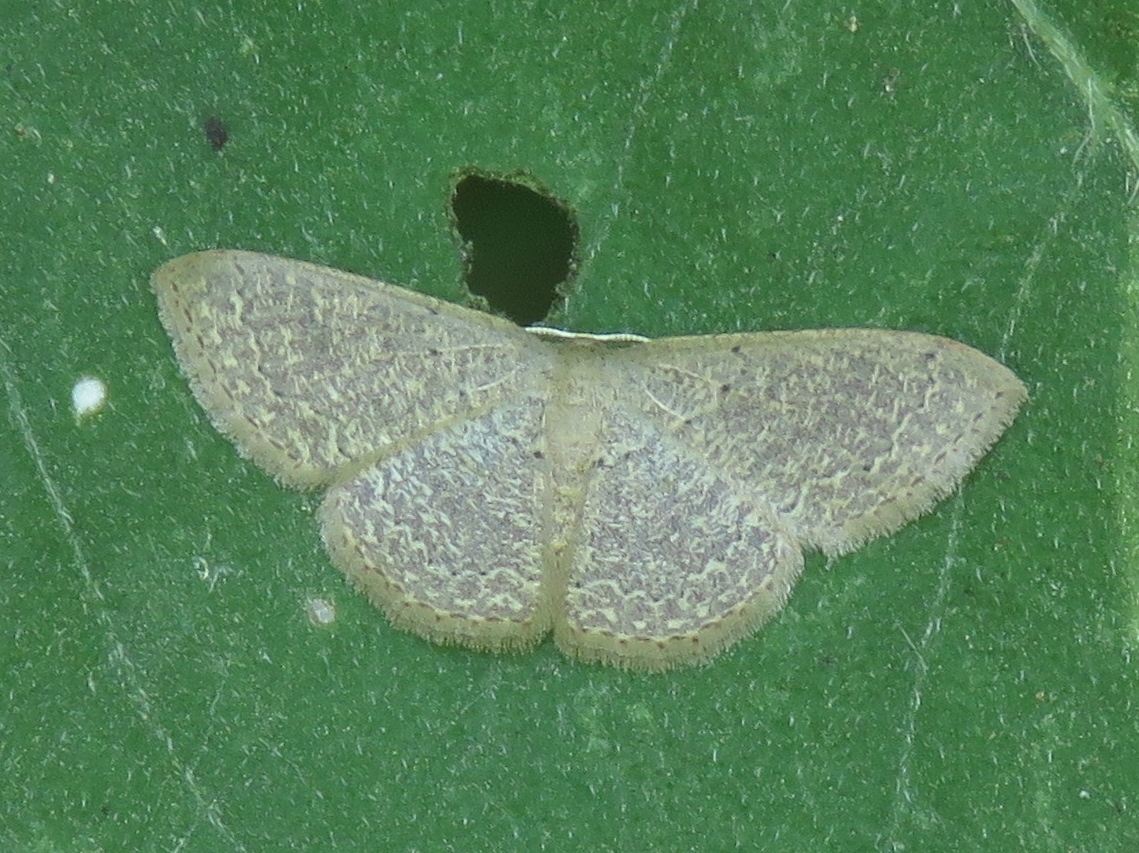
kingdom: Animalia
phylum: Arthropoda
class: Insecta
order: Lepidoptera
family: Geometridae
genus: Pleuroprucha
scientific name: Pleuroprucha insulsaria
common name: Common tan wave
